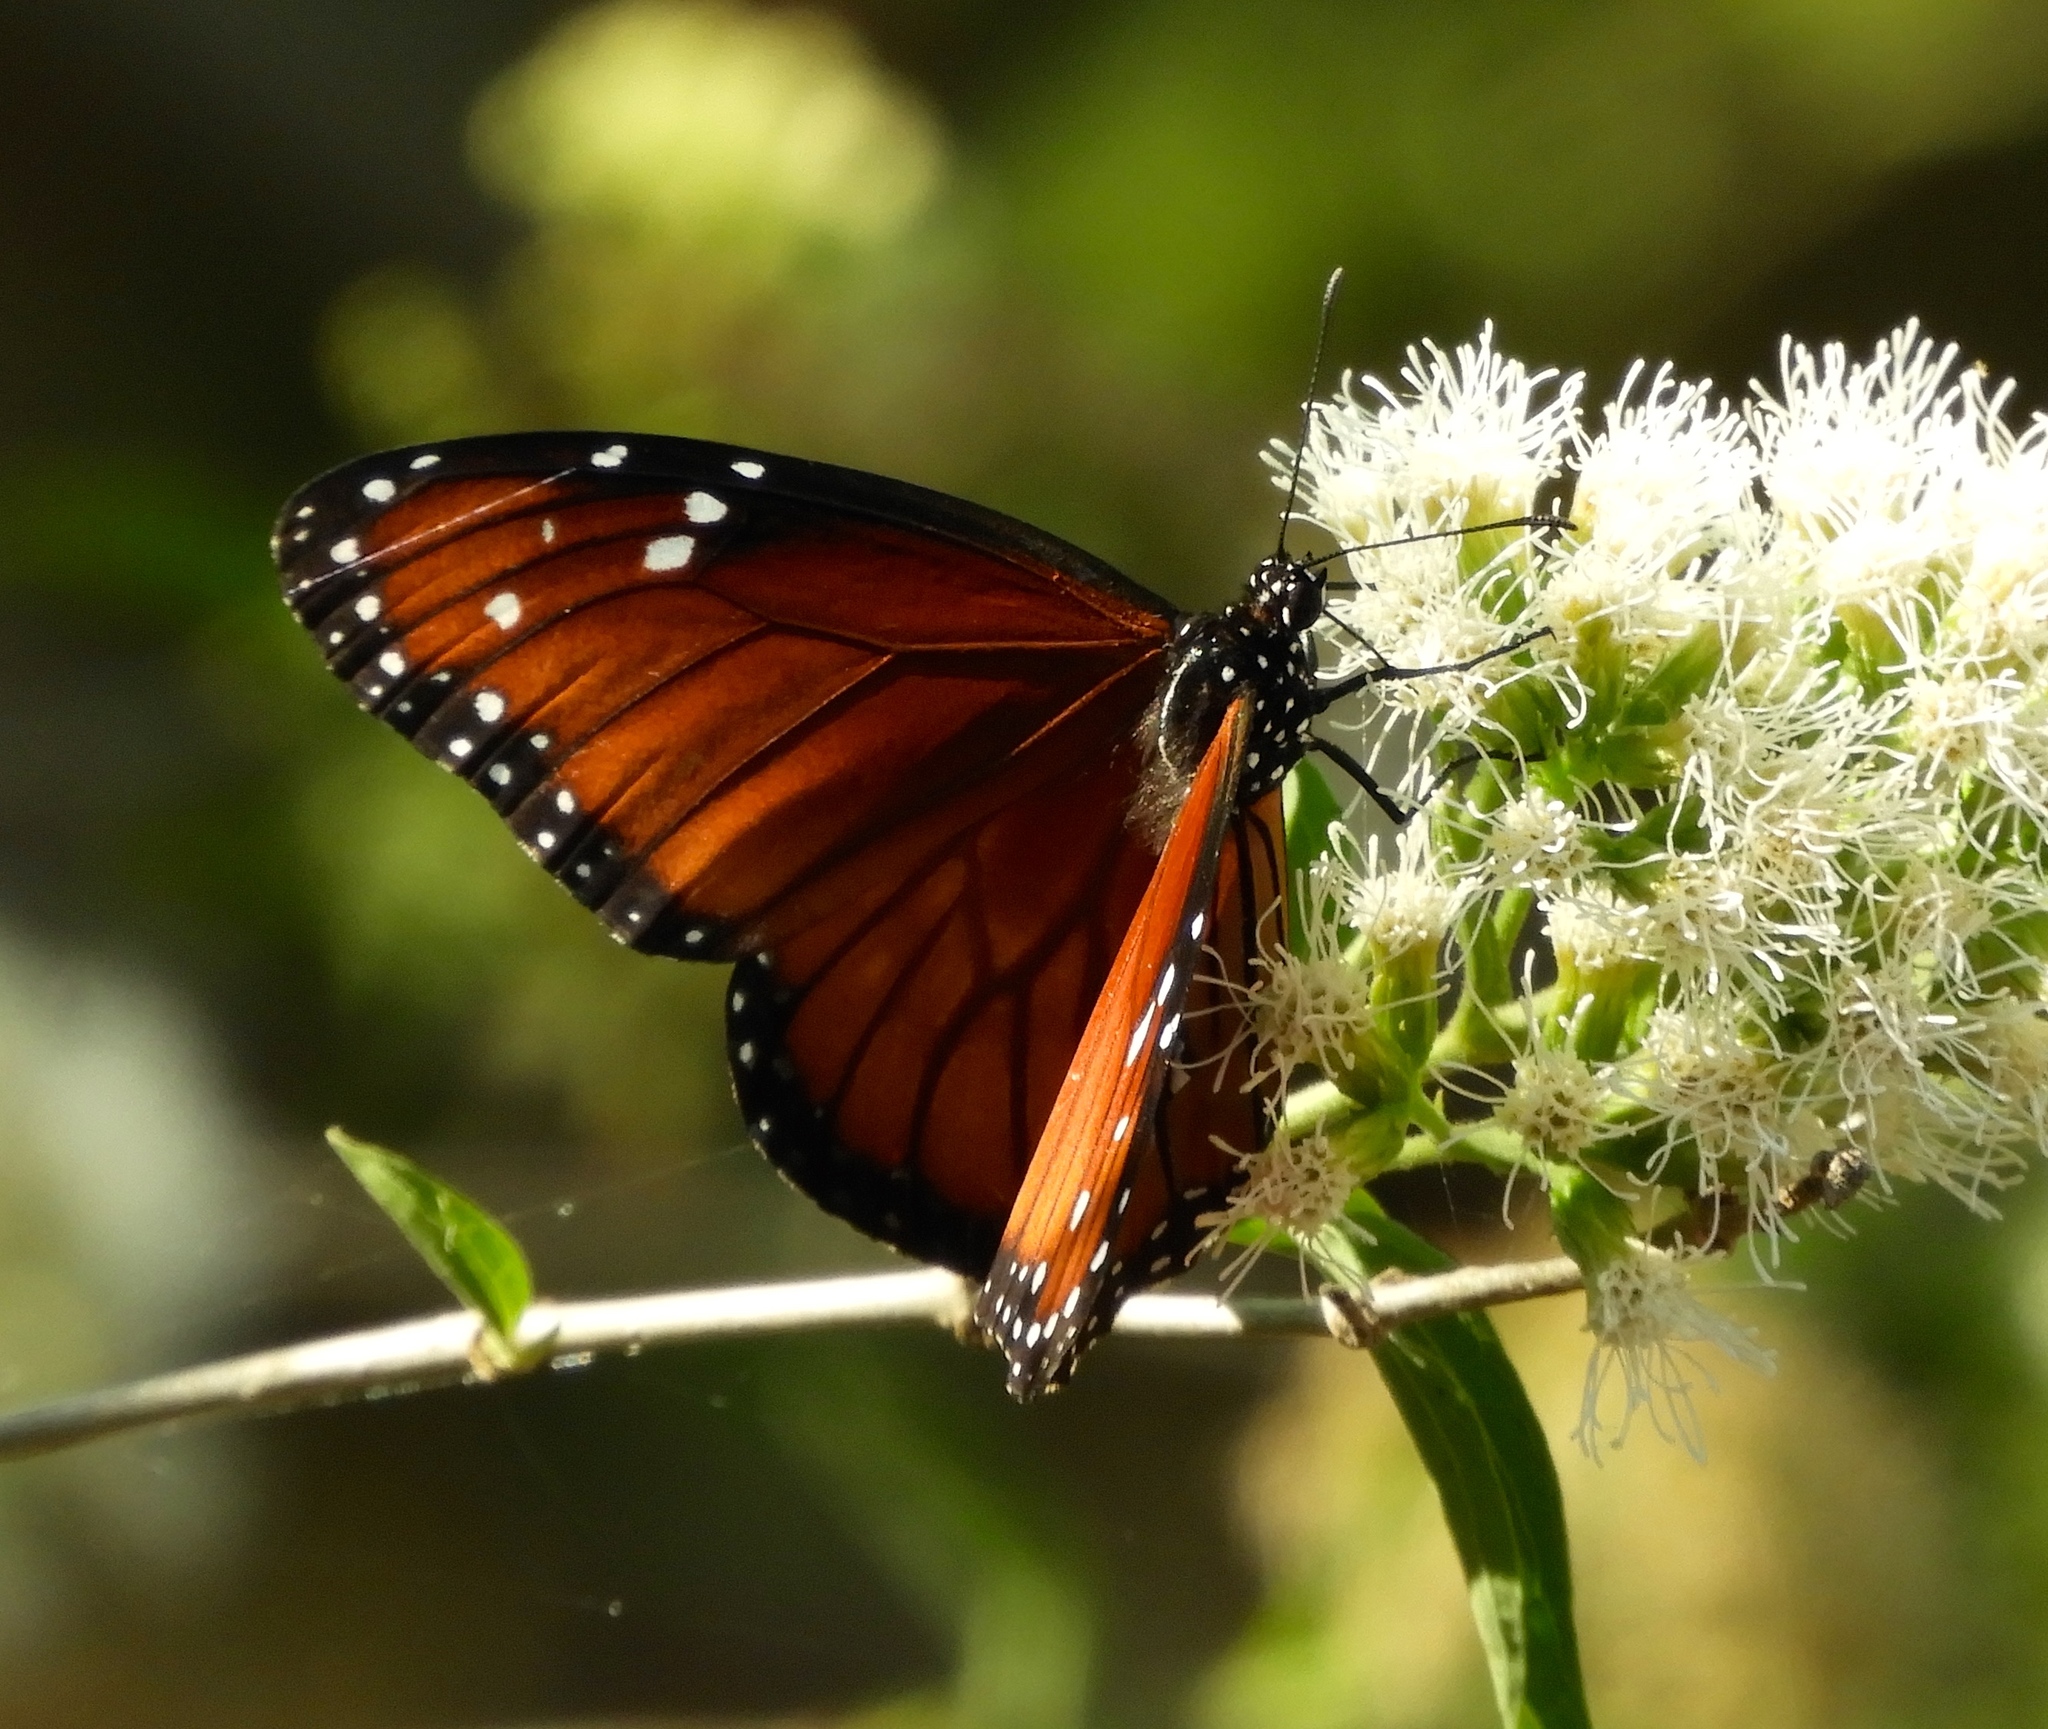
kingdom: Animalia
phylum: Arthropoda
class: Insecta
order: Lepidoptera
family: Nymphalidae
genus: Danaus
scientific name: Danaus eresimus
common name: Soldier
